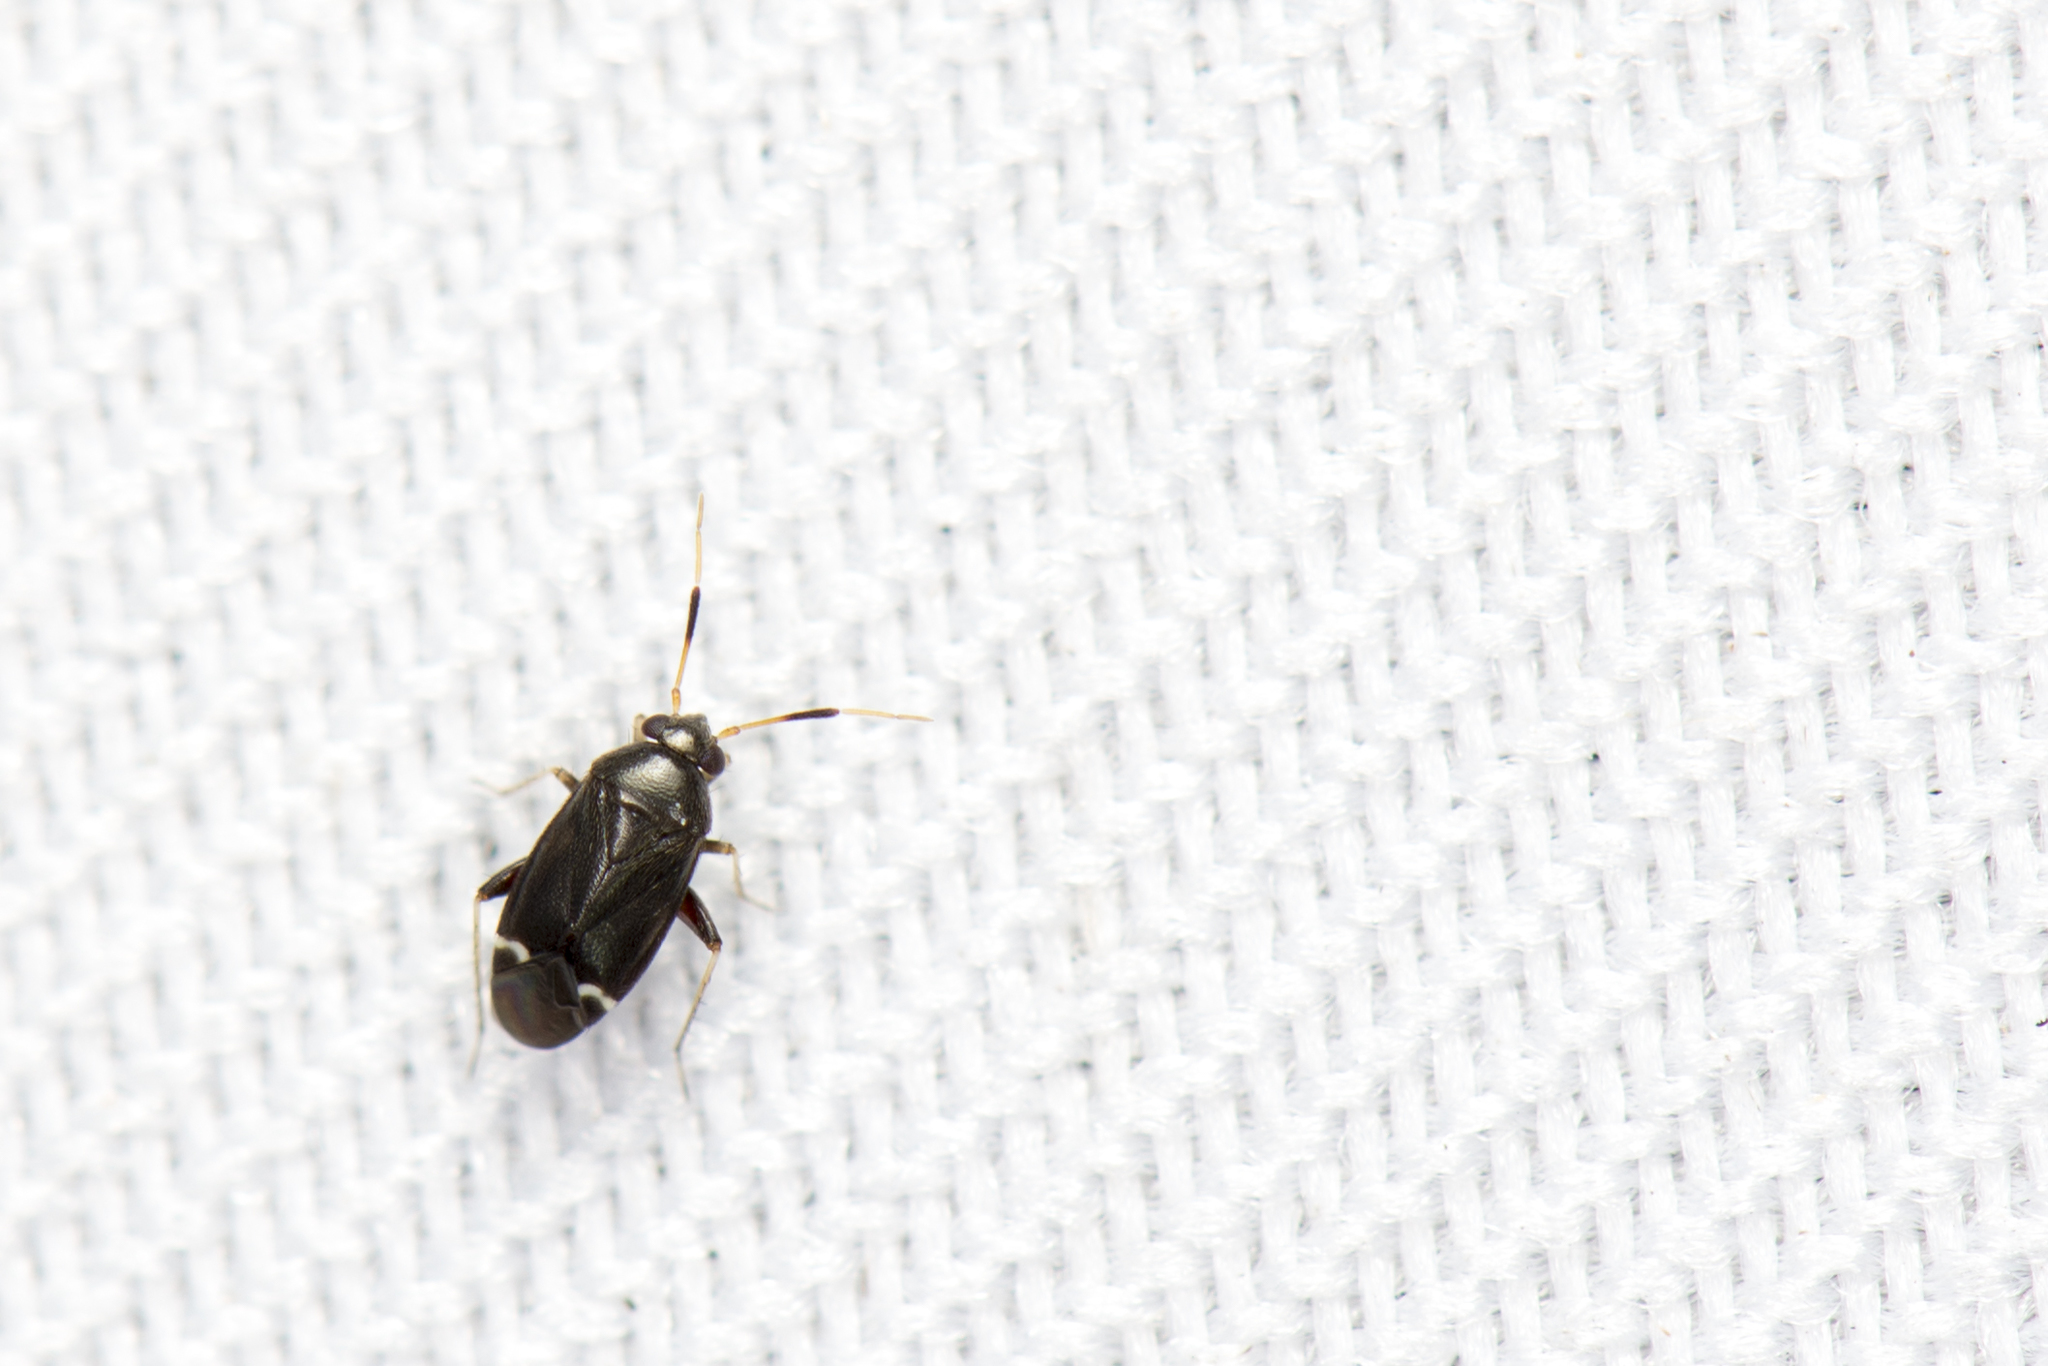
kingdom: Animalia
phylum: Arthropoda
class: Insecta
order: Hemiptera
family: Miridae
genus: Sejanus
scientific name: Sejanus neofunereus
